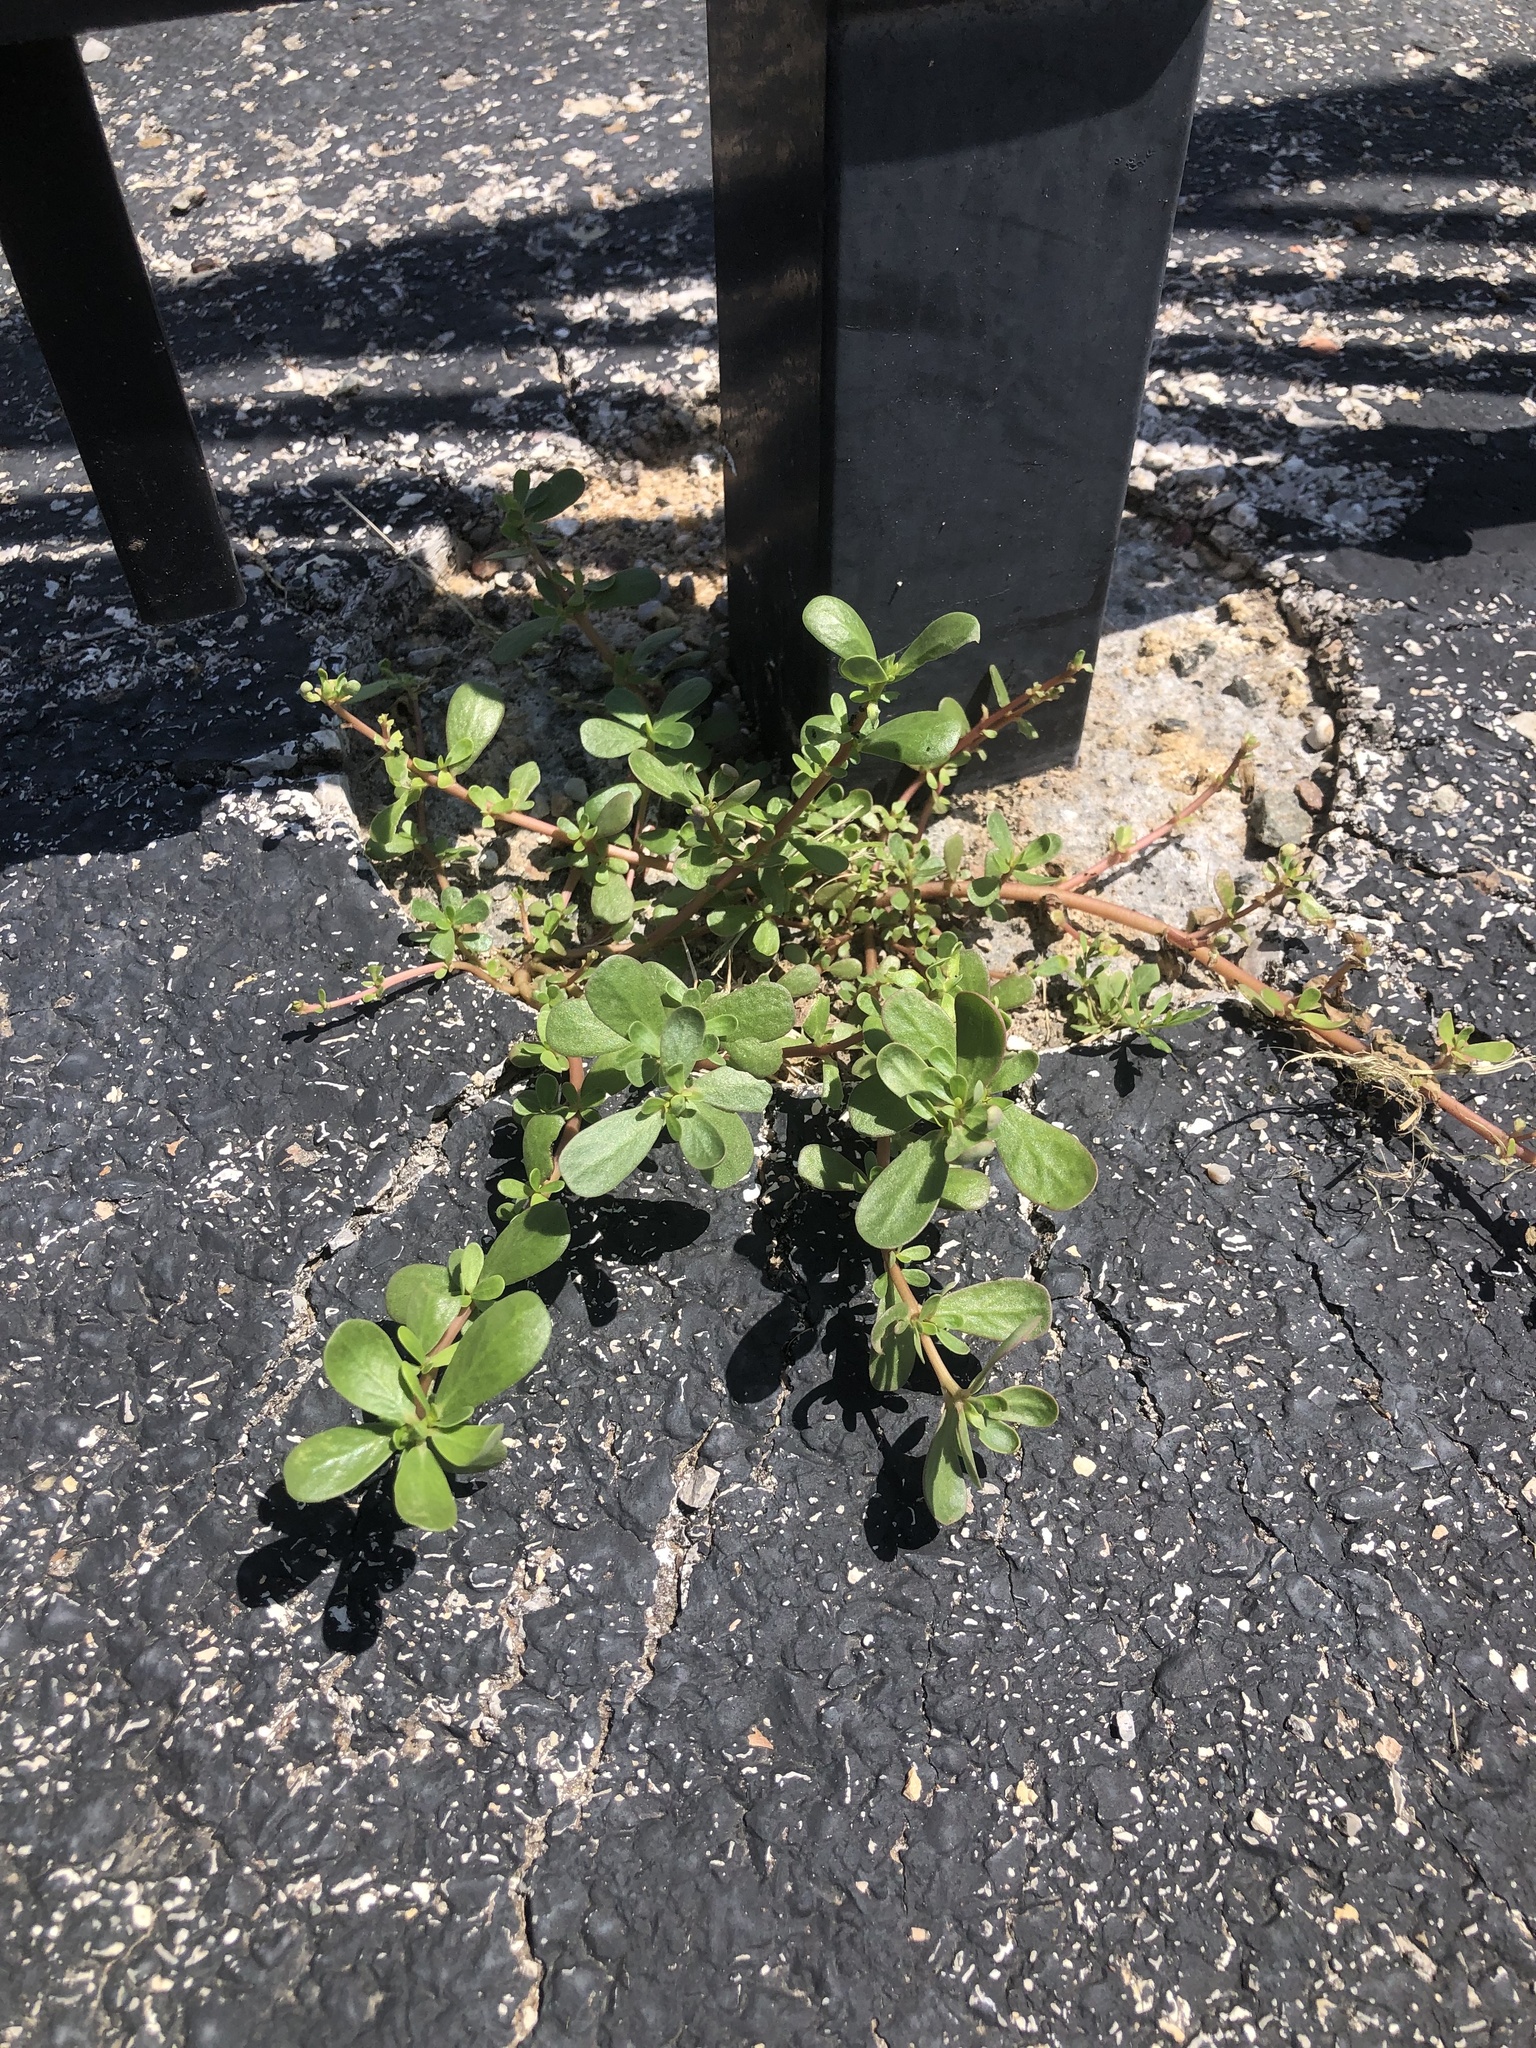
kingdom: Plantae
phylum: Tracheophyta
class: Magnoliopsida
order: Caryophyllales
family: Portulacaceae
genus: Portulaca
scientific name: Portulaca oleracea
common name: Common purslane
